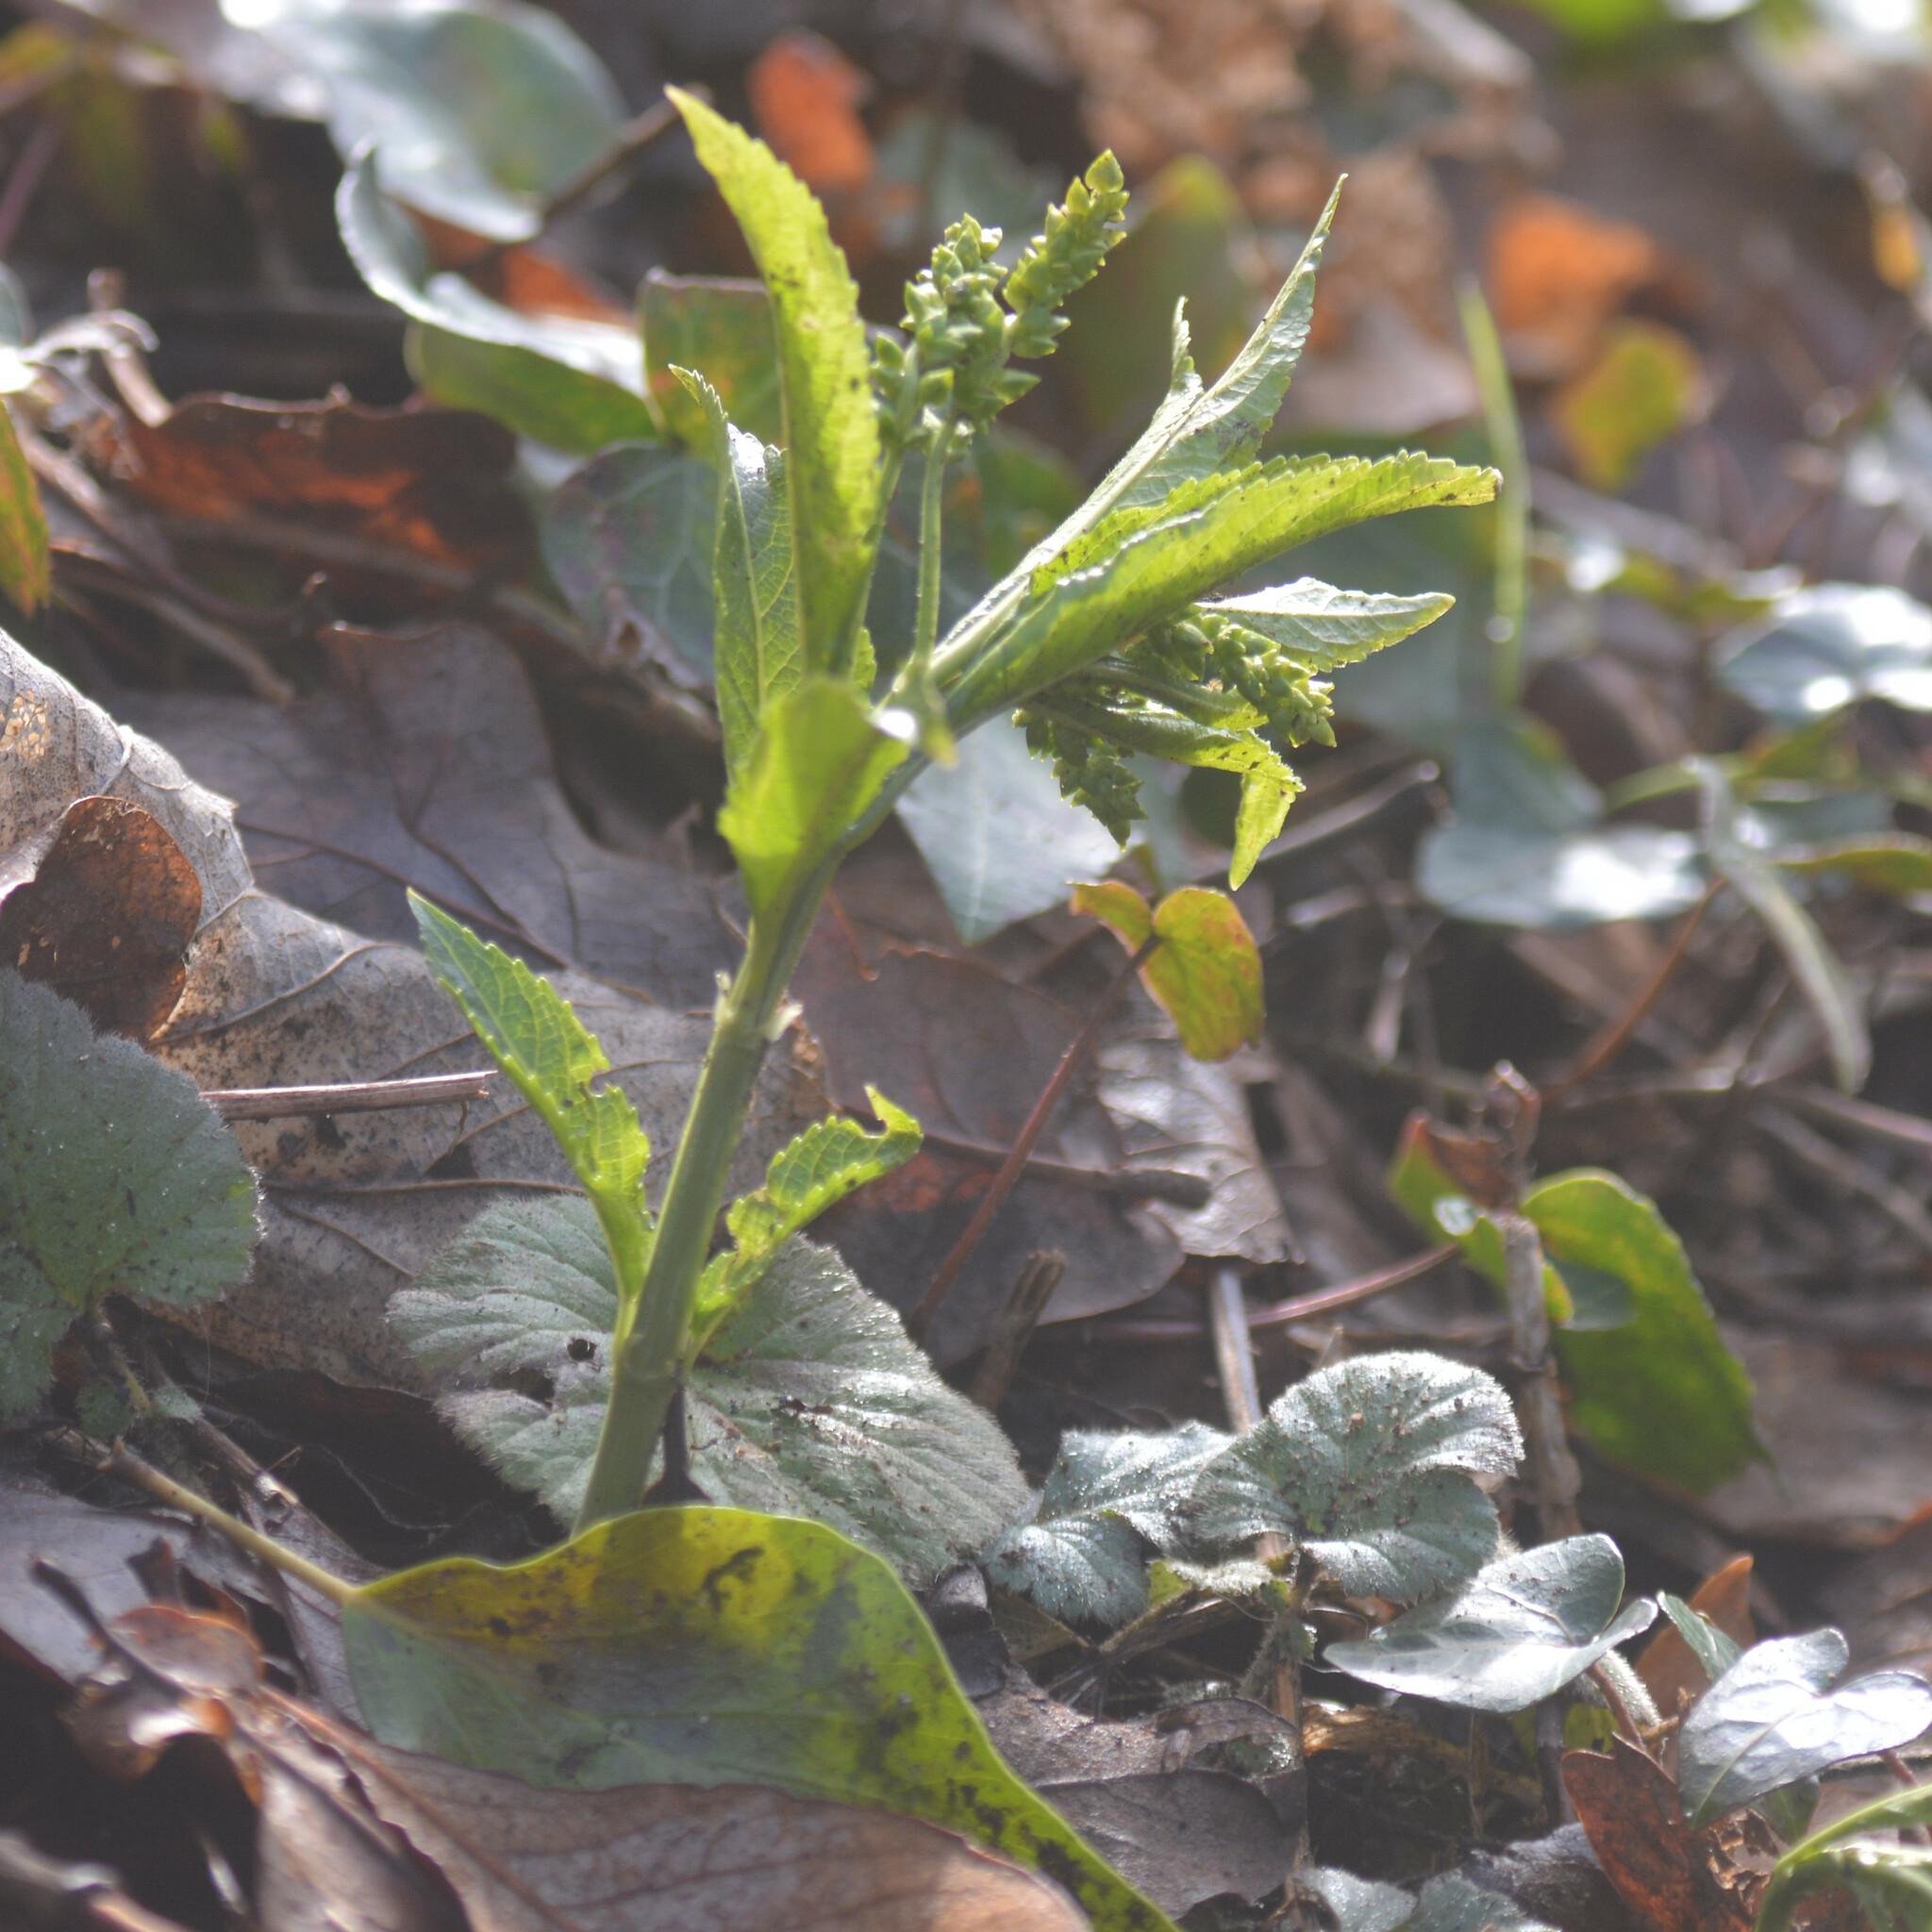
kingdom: Plantae
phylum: Tracheophyta
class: Magnoliopsida
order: Malpighiales
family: Euphorbiaceae
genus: Mercurialis
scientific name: Mercurialis perennis
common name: Dog mercury
